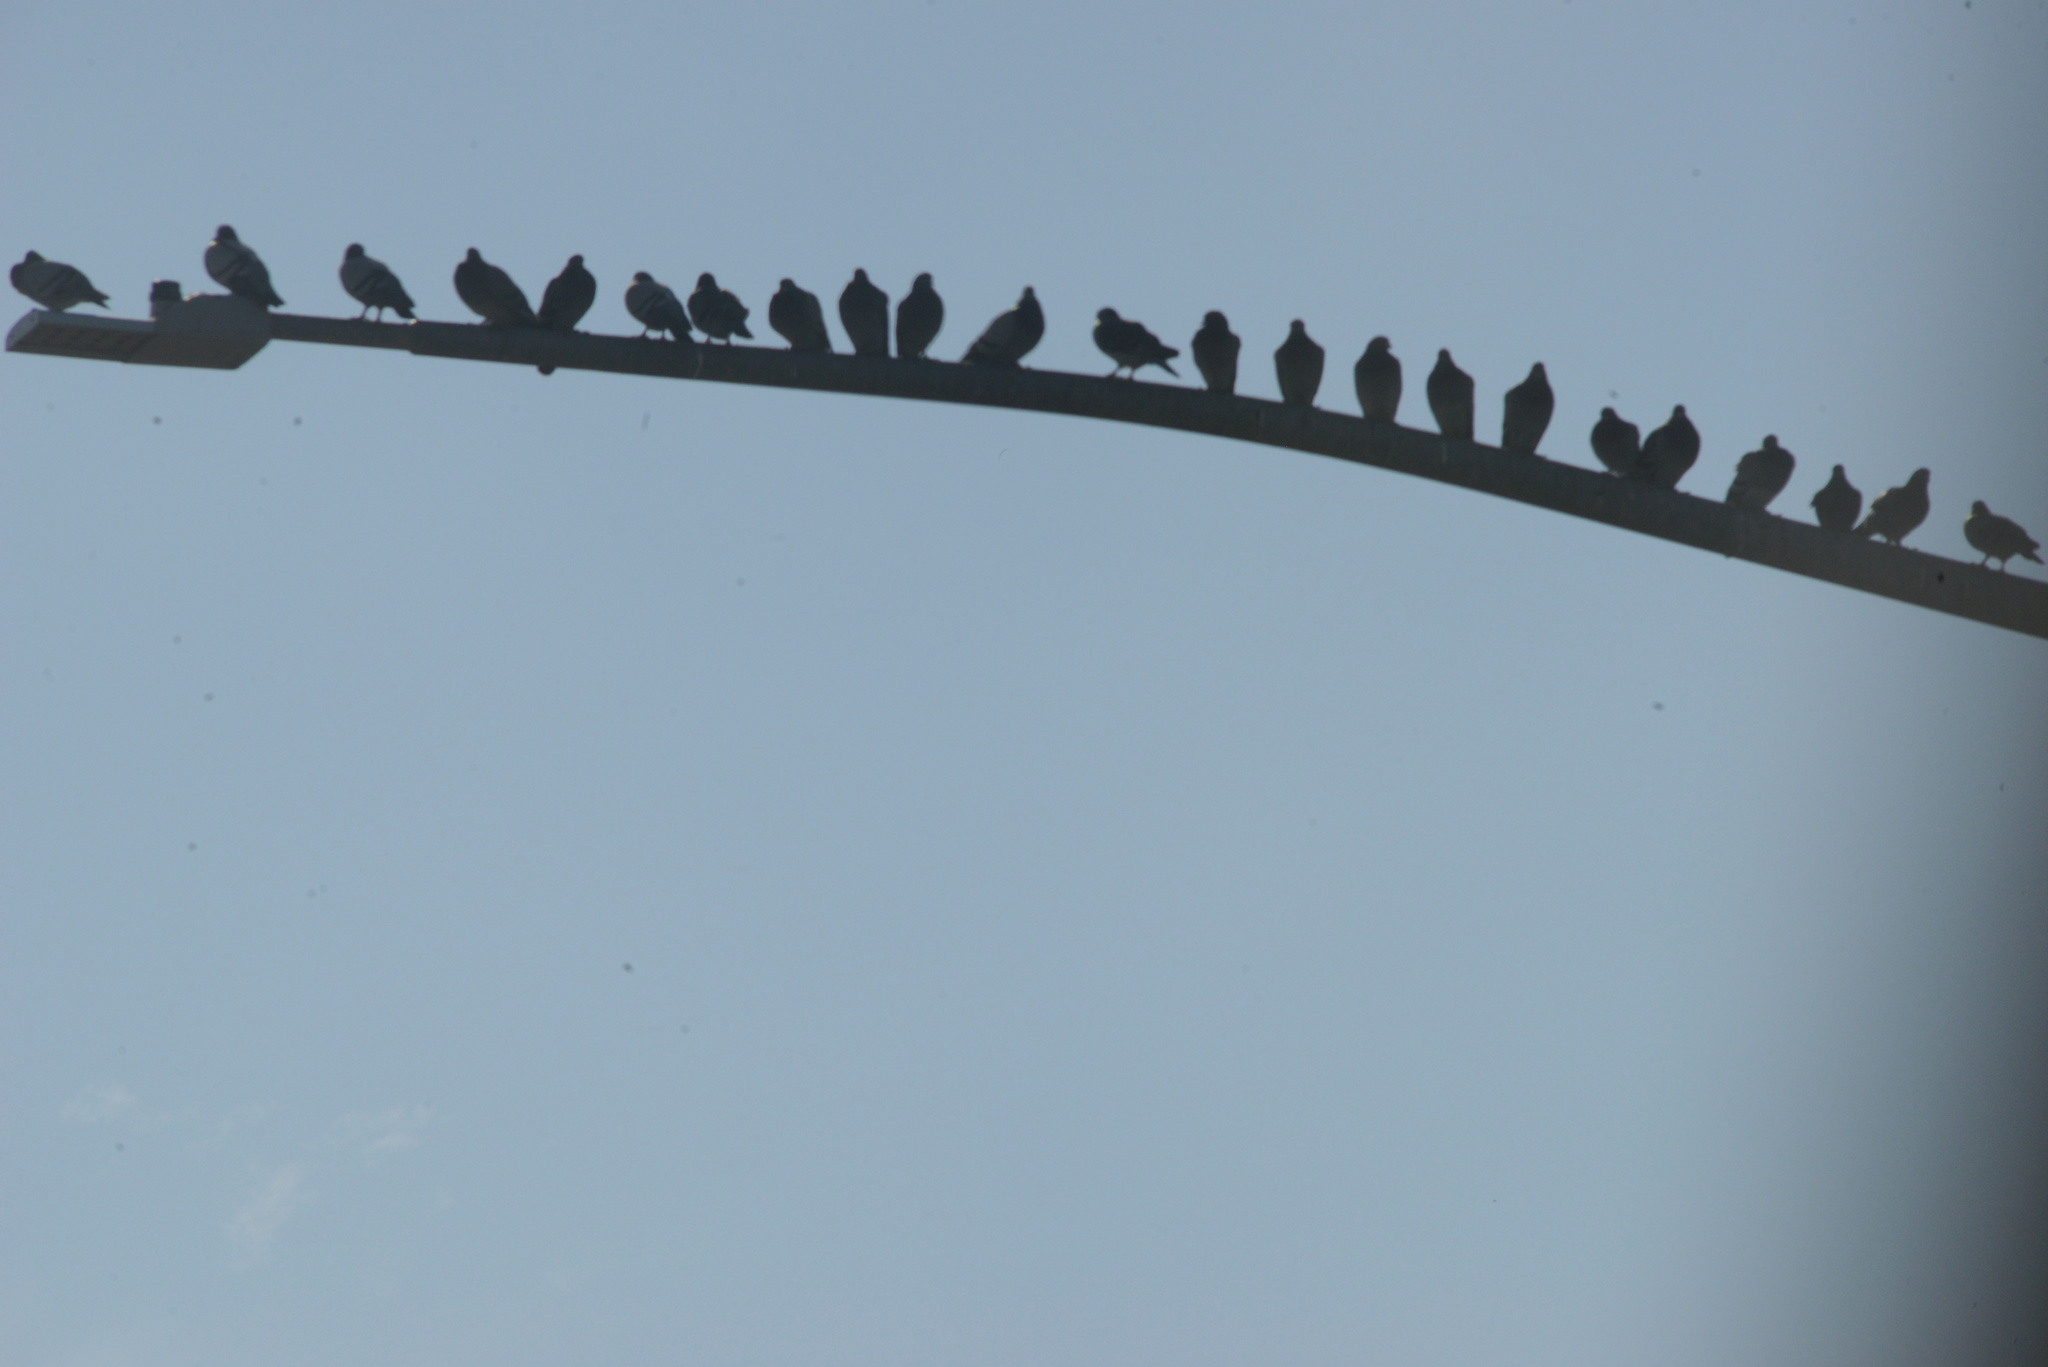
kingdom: Animalia
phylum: Chordata
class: Aves
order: Columbiformes
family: Columbidae
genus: Columba
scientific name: Columba livia
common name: Rock pigeon
